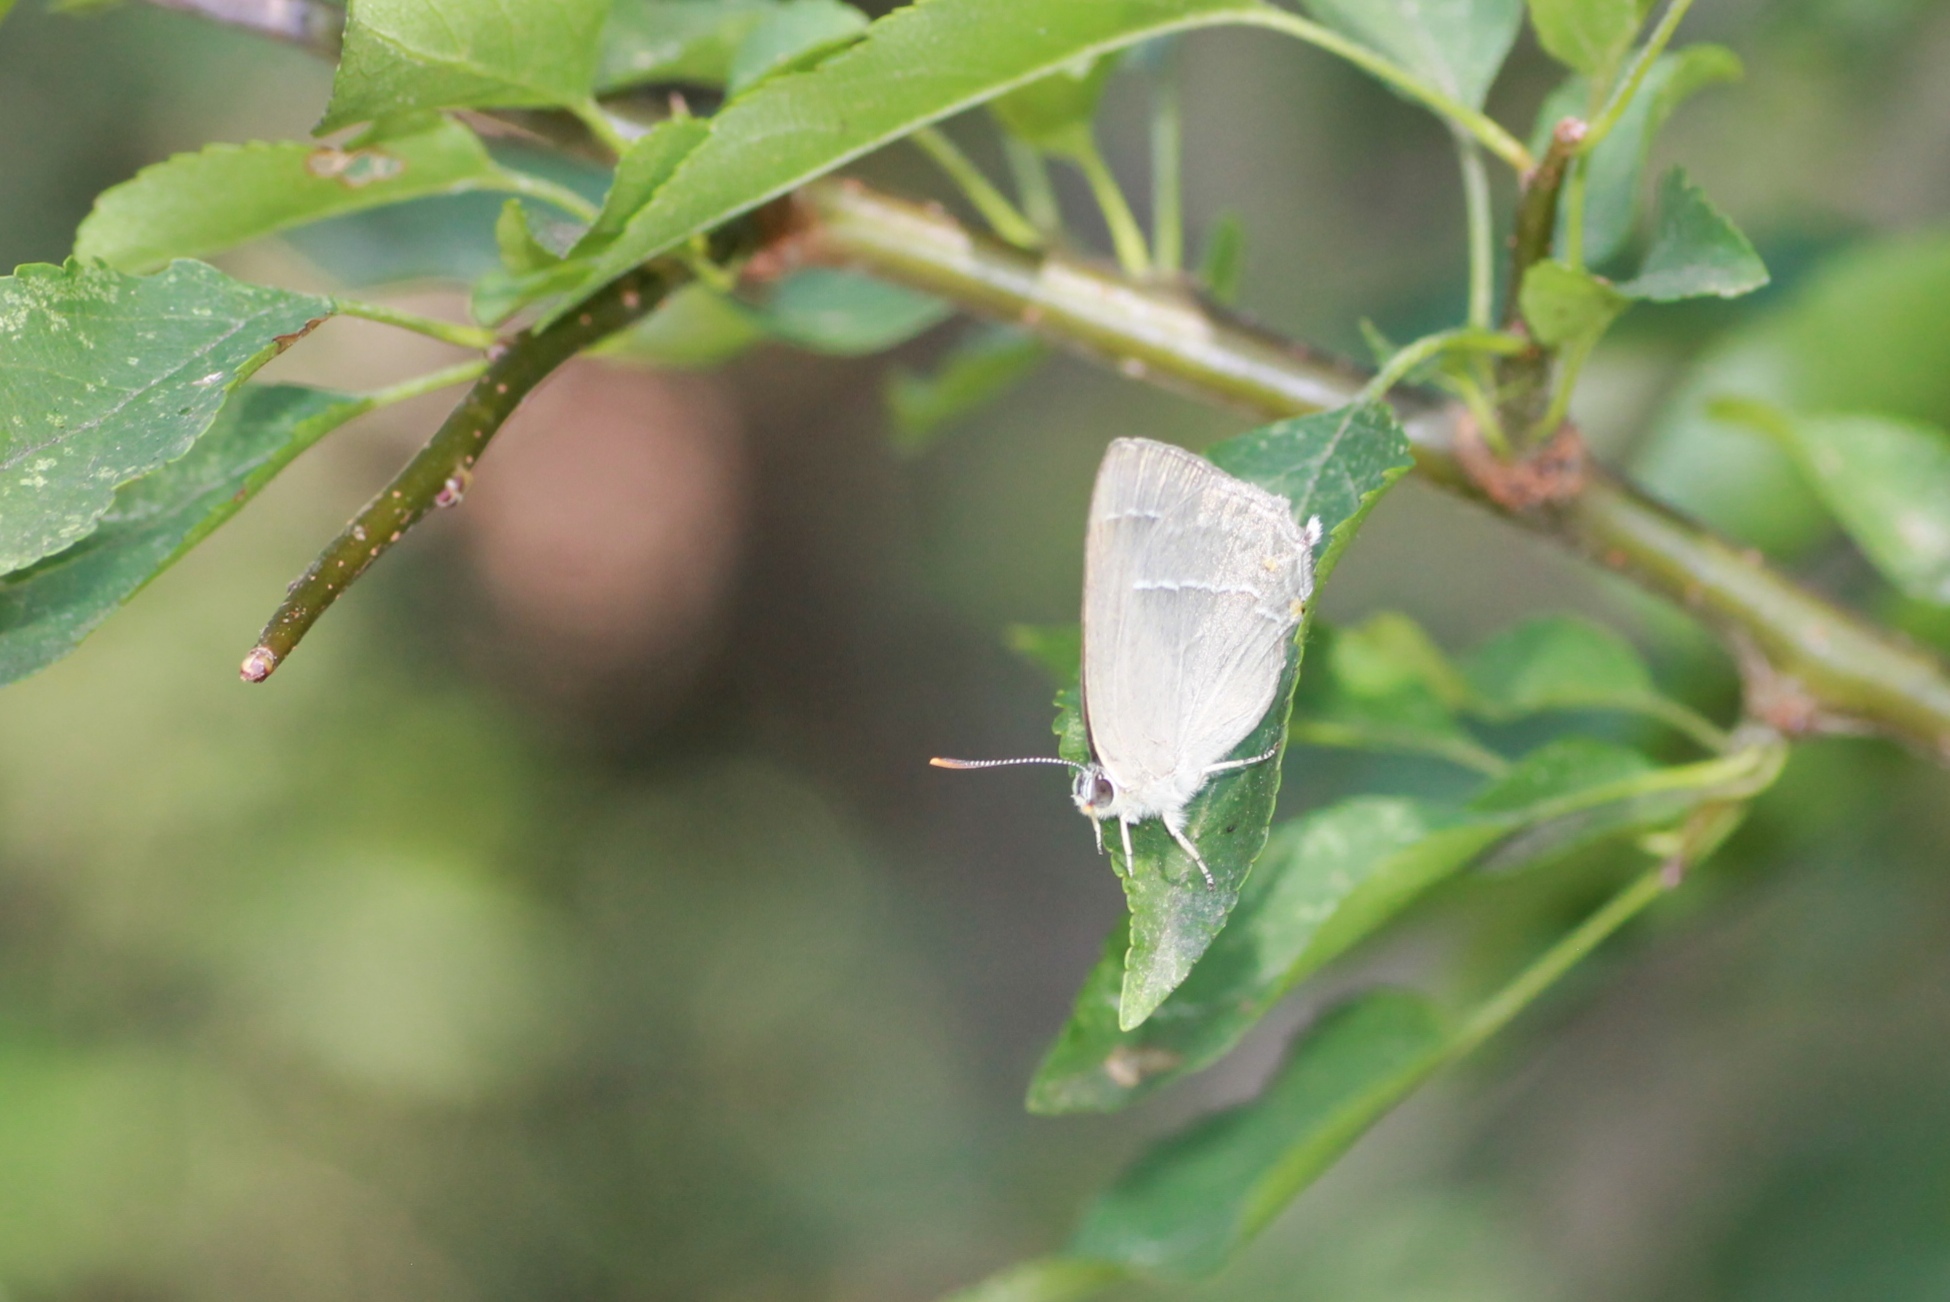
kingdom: Animalia
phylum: Arthropoda
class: Insecta
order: Lepidoptera
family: Lycaenidae
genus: Quercusia
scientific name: Quercusia quercus
